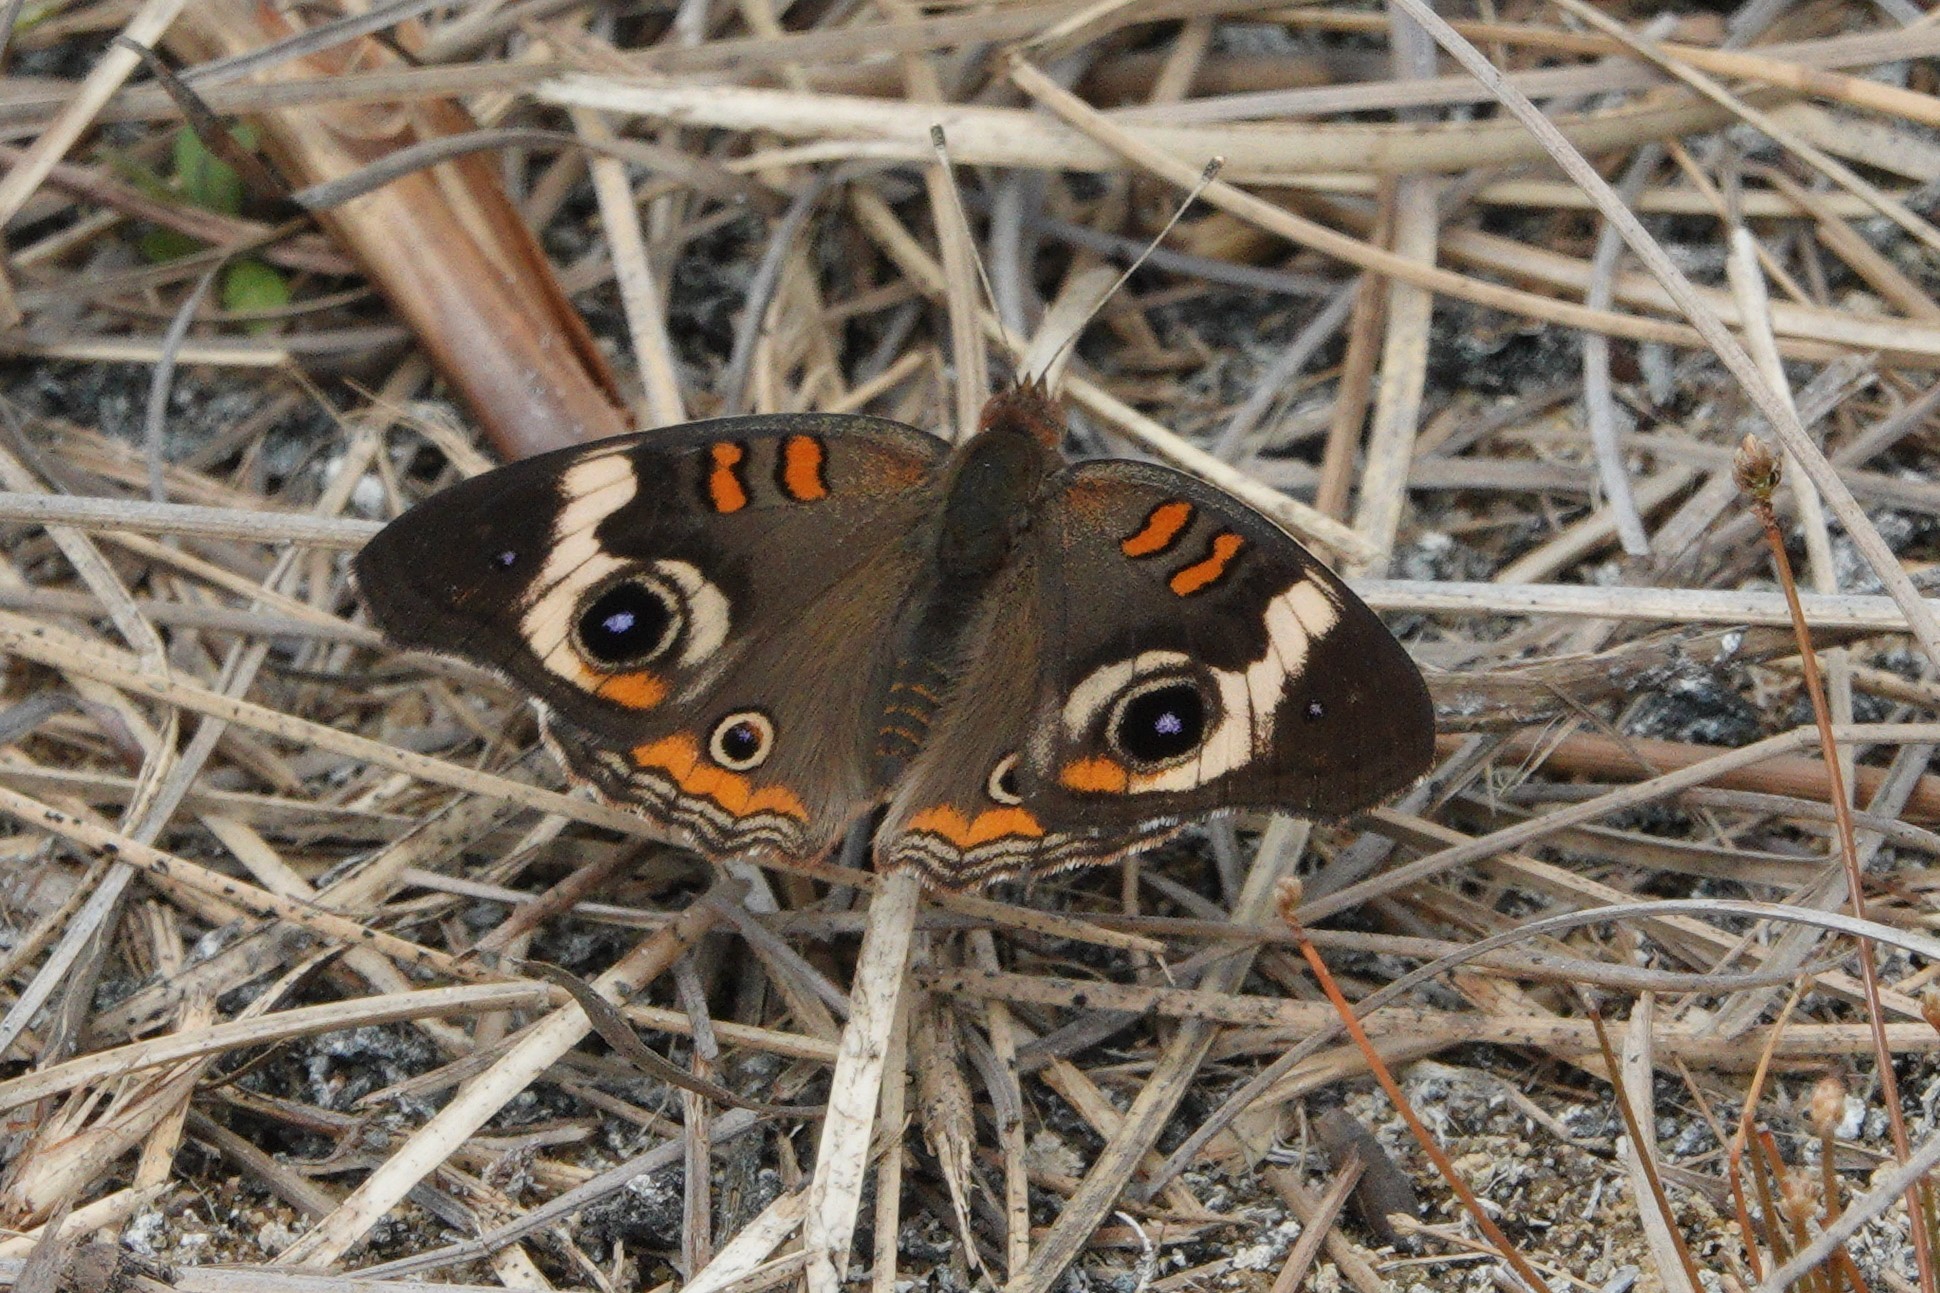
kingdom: Animalia
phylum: Arthropoda
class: Insecta
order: Lepidoptera
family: Nymphalidae
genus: Junonia
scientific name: Junonia coenia
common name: Common buckeye
